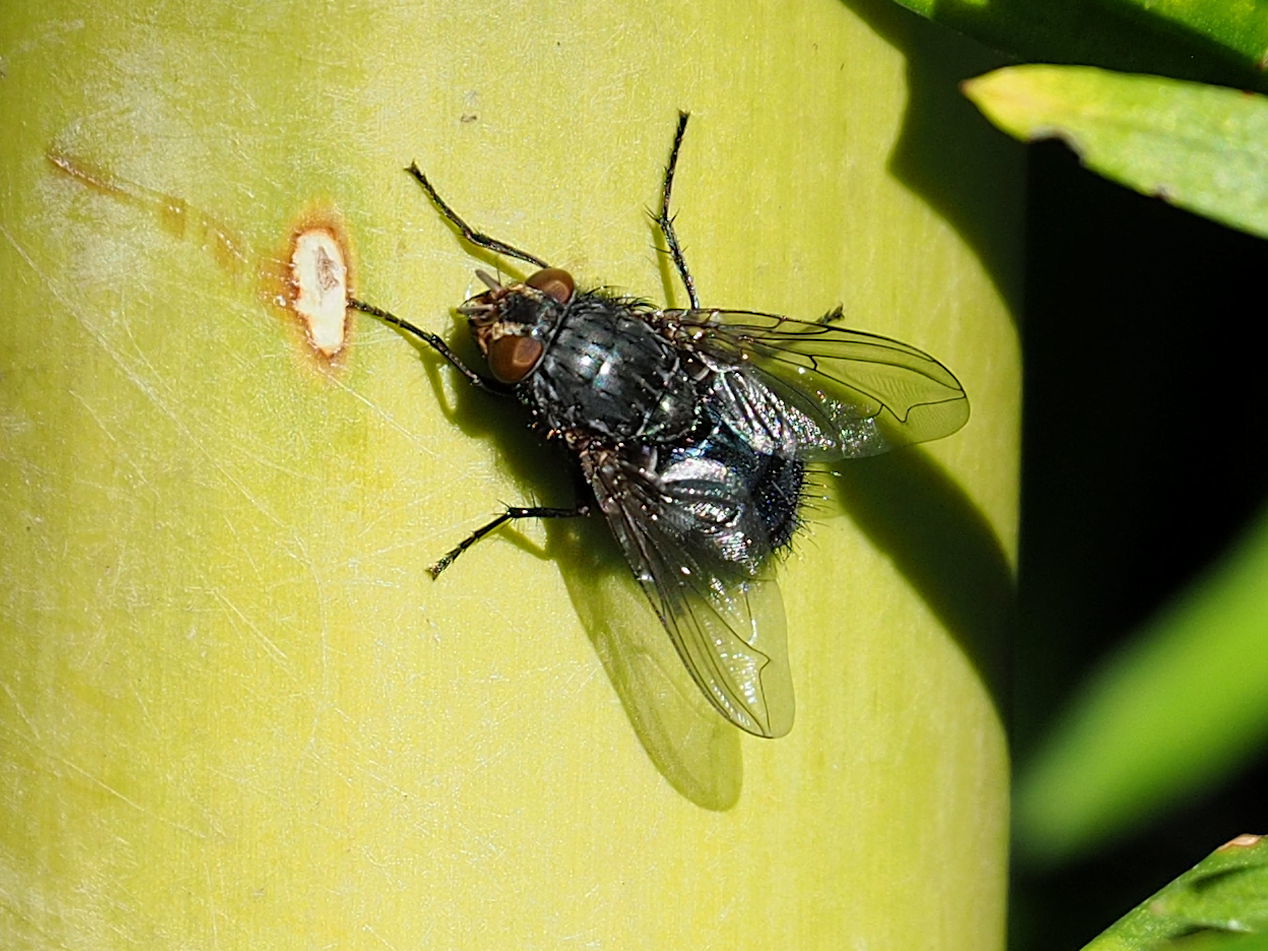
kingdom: Animalia
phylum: Arthropoda
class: Insecta
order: Diptera
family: Calliphoridae
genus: Calliphora
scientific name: Calliphora vicina
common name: Common blow flie
